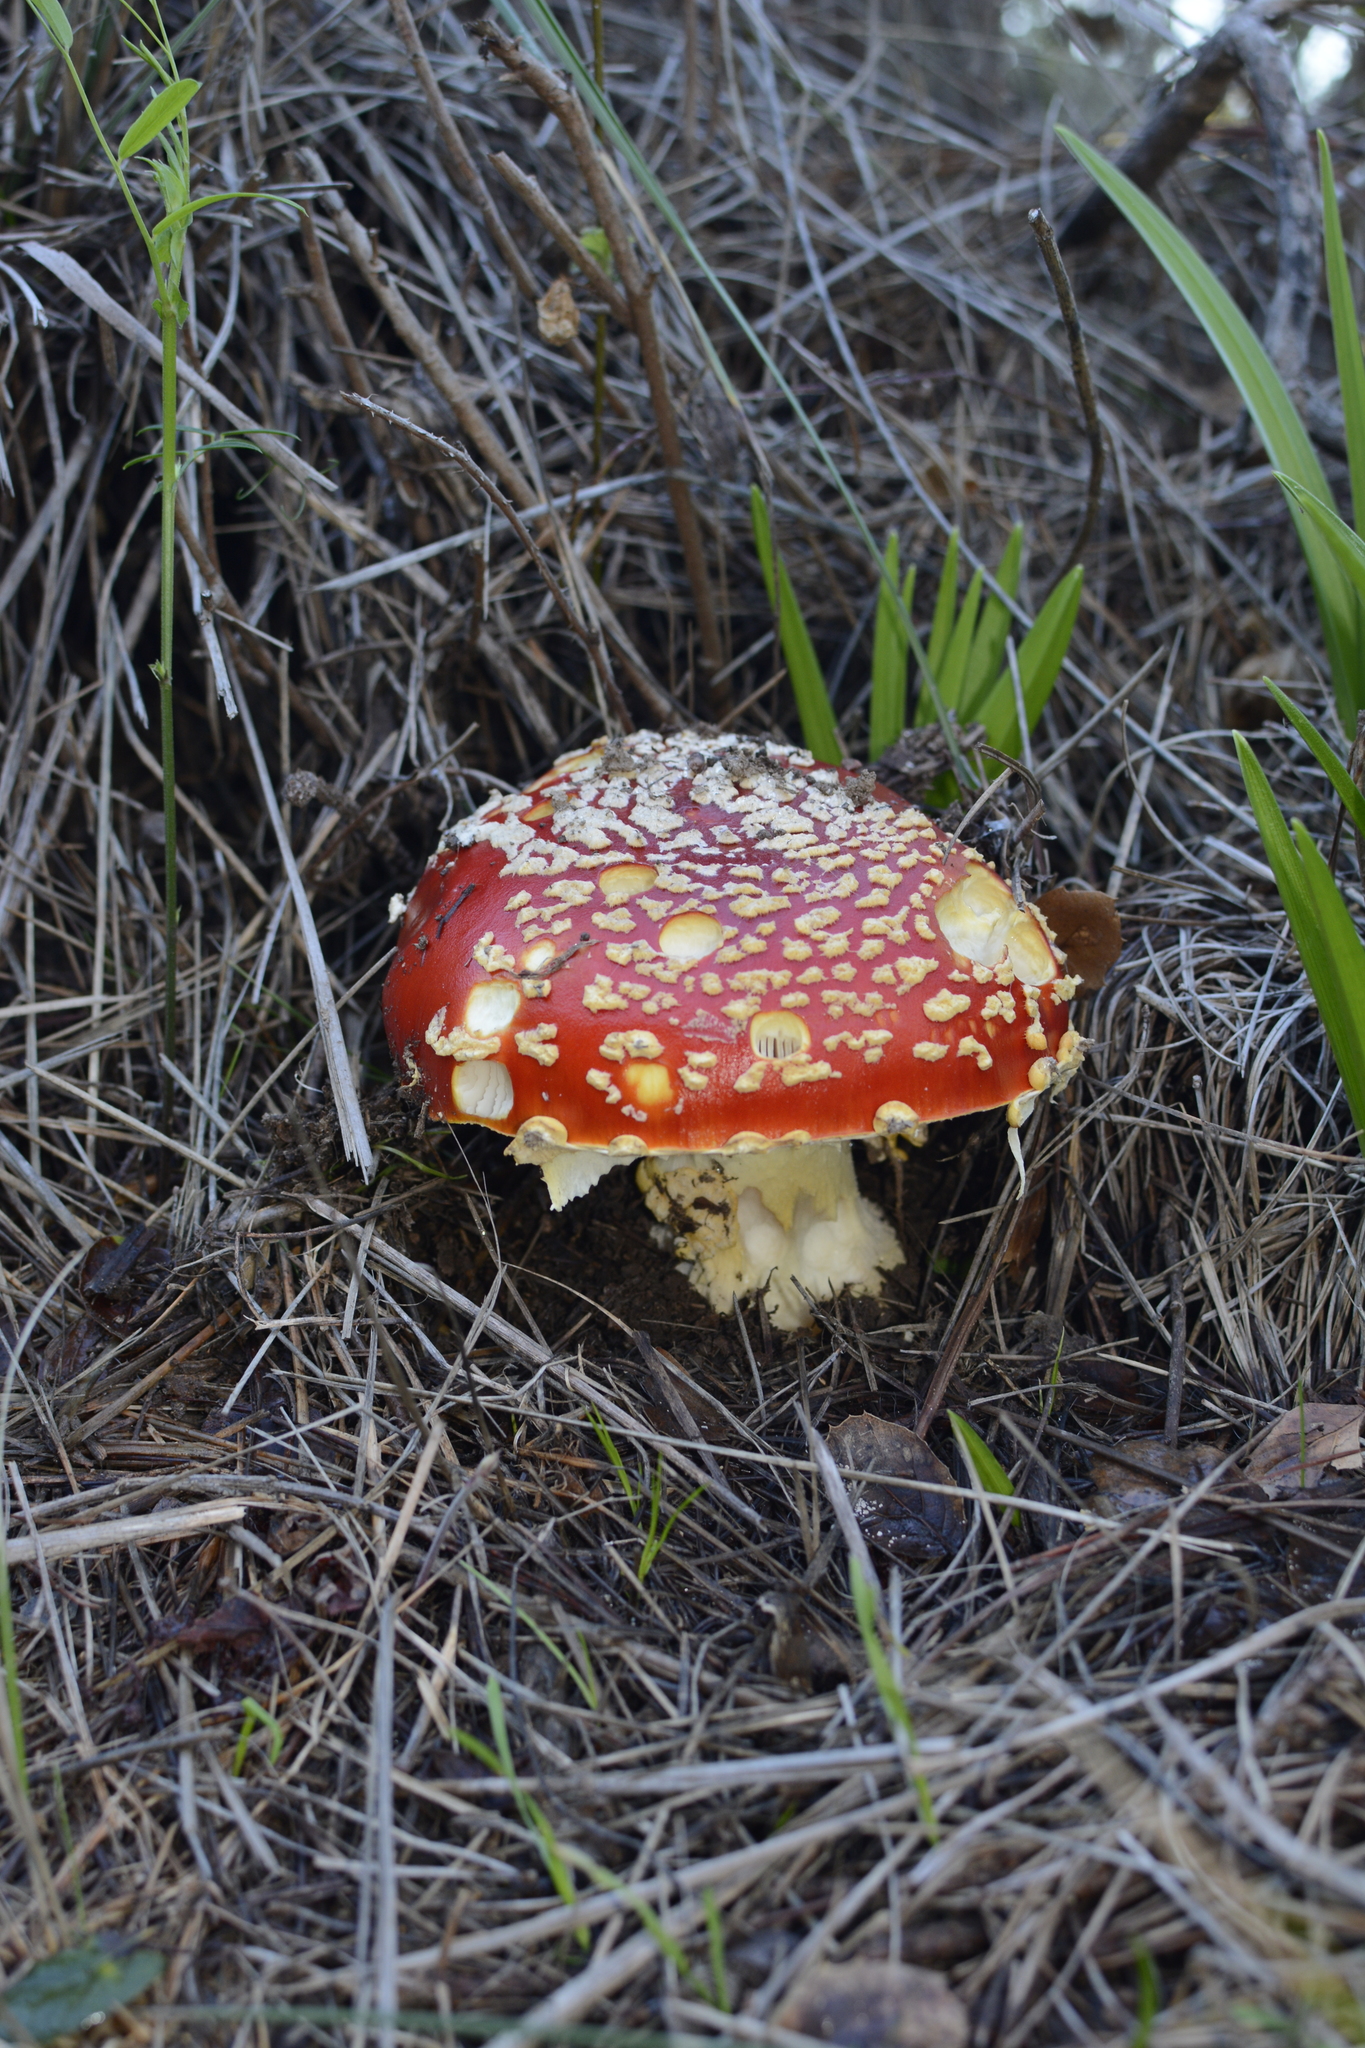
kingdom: Fungi
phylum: Basidiomycota
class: Agaricomycetes
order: Agaricales
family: Amanitaceae
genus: Amanita
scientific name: Amanita muscaria
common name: Fly agaric
